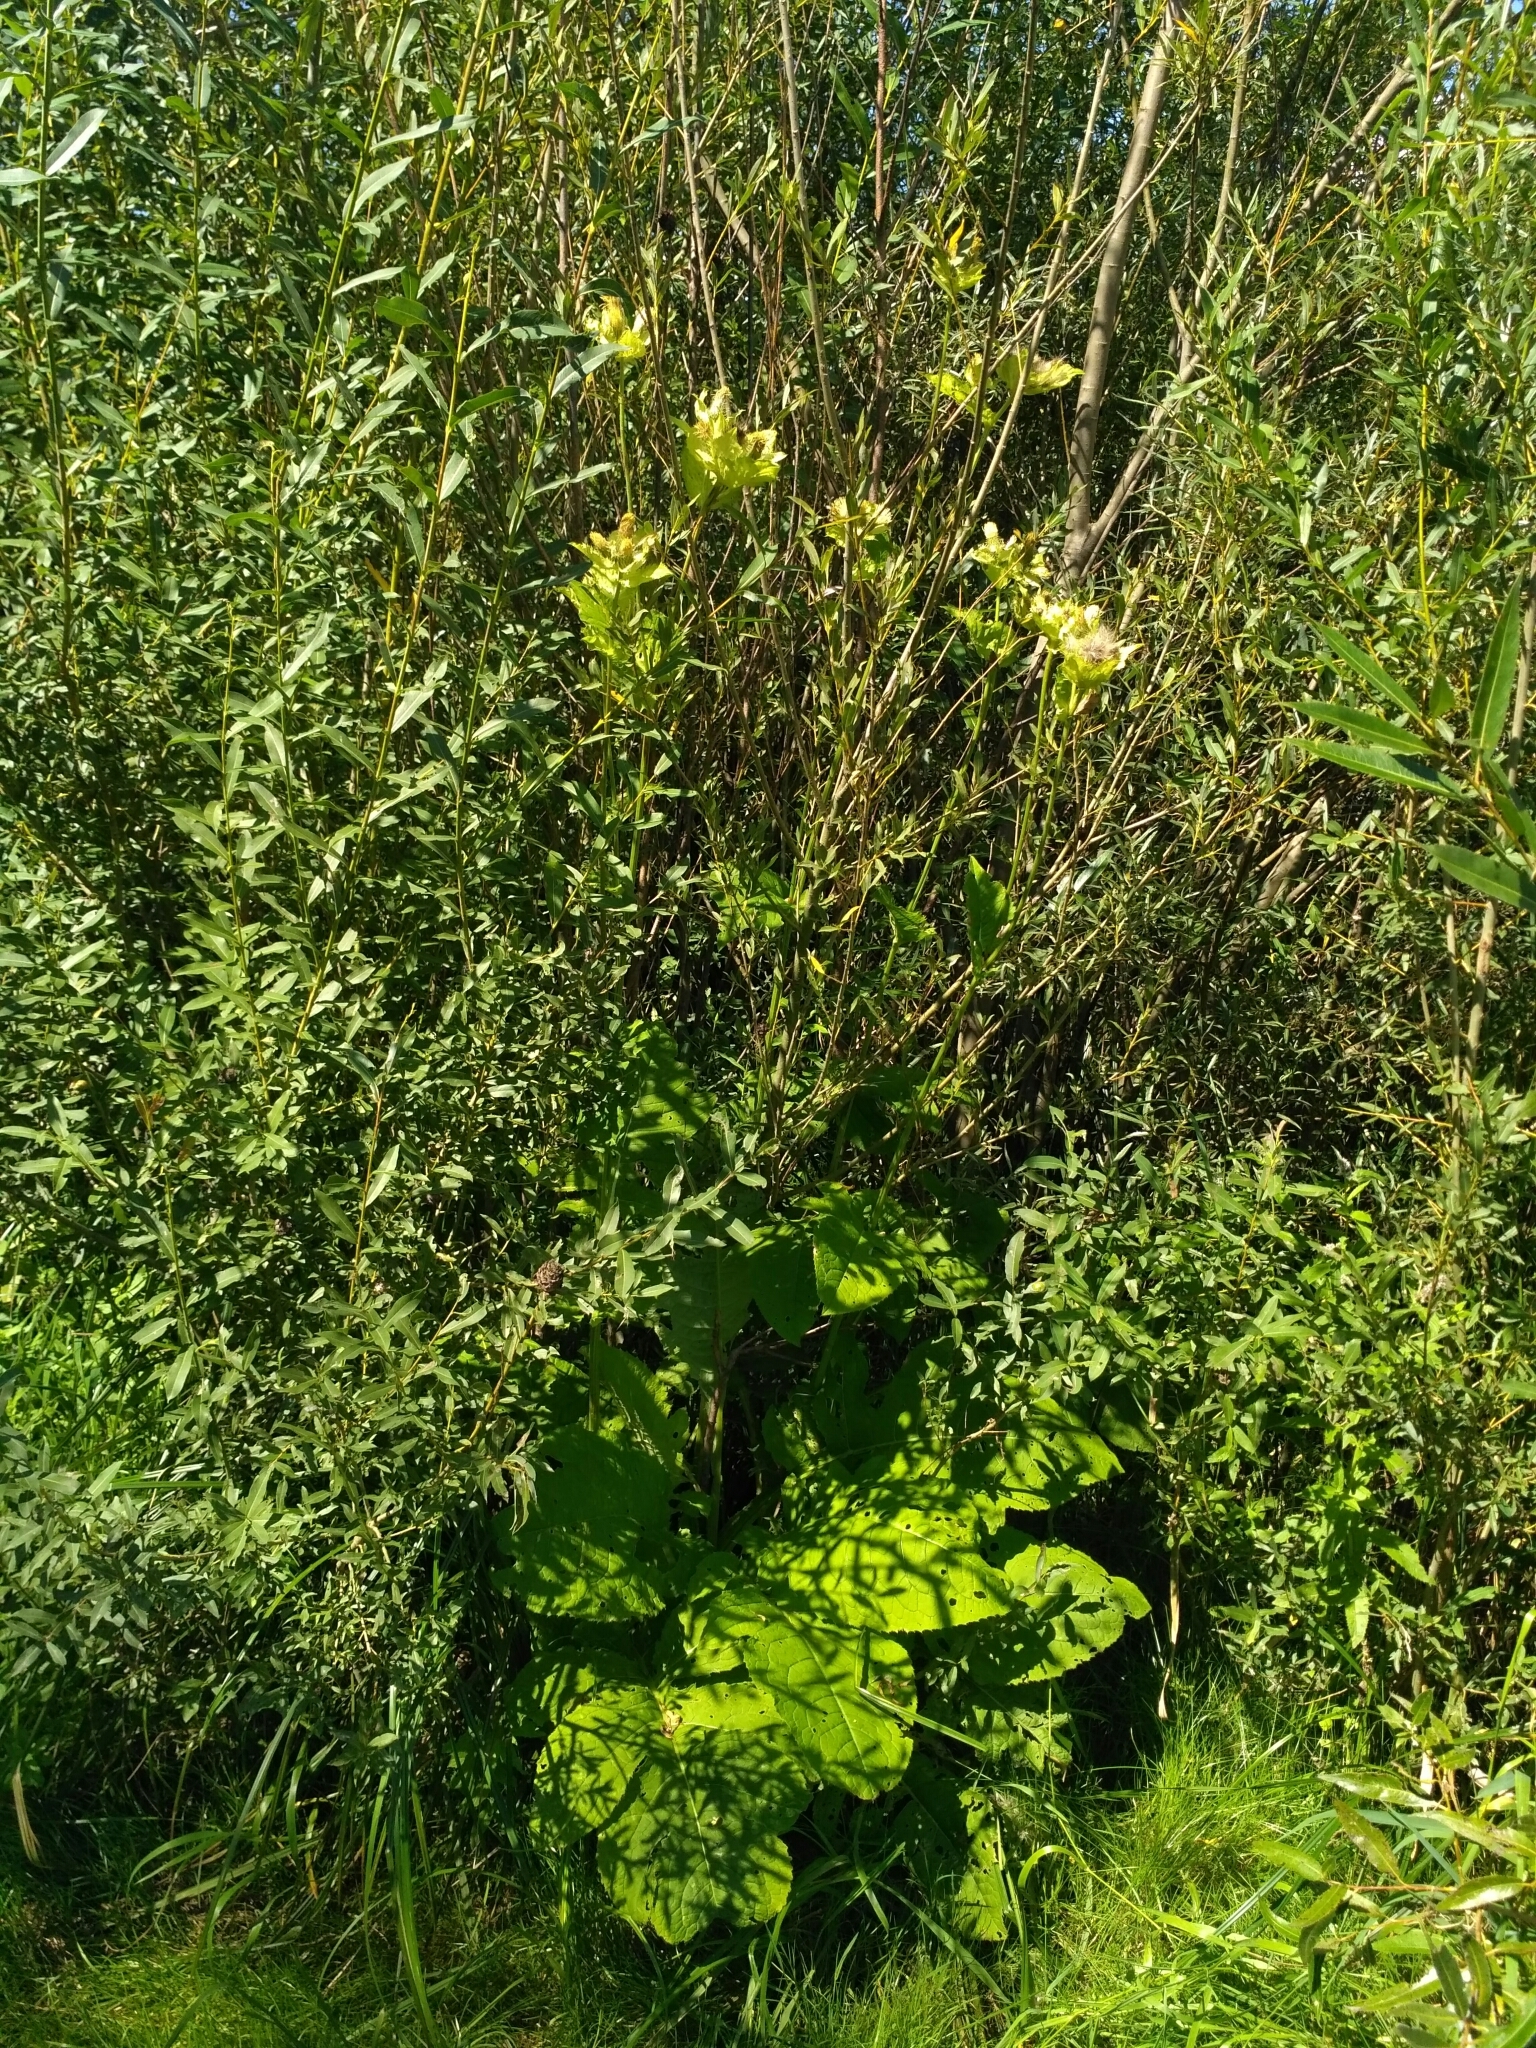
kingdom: Plantae
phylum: Tracheophyta
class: Magnoliopsida
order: Asterales
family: Asteraceae
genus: Cirsium
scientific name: Cirsium oleraceum
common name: Cabbage thistle
